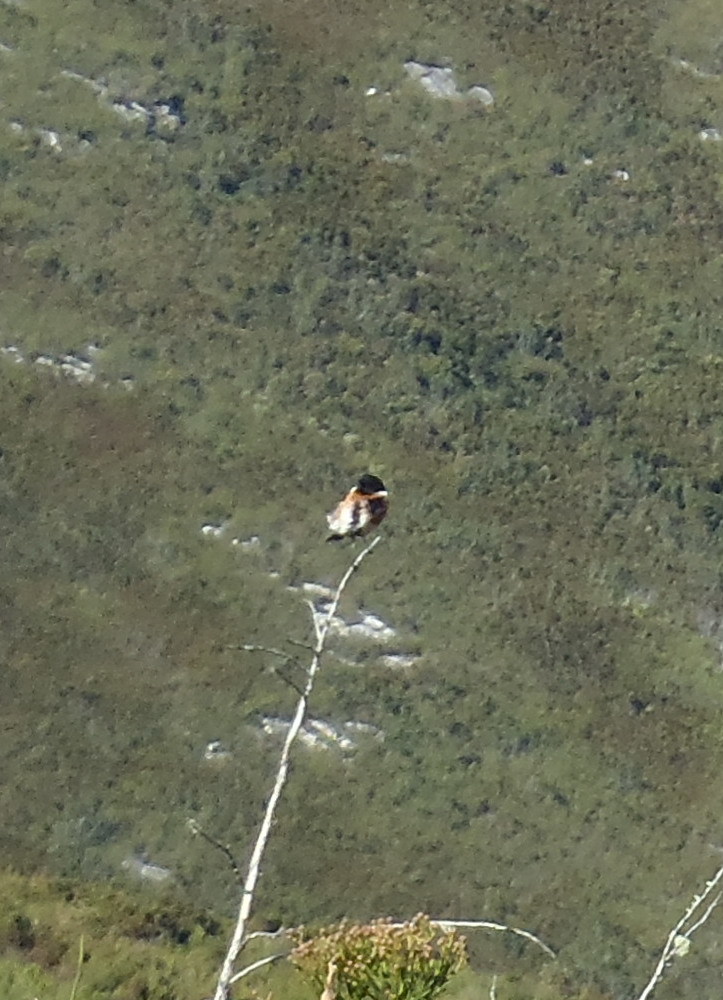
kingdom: Animalia
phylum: Chordata
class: Aves
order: Passeriformes
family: Muscicapidae
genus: Saxicola
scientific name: Saxicola torquatus
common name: African stonechat
